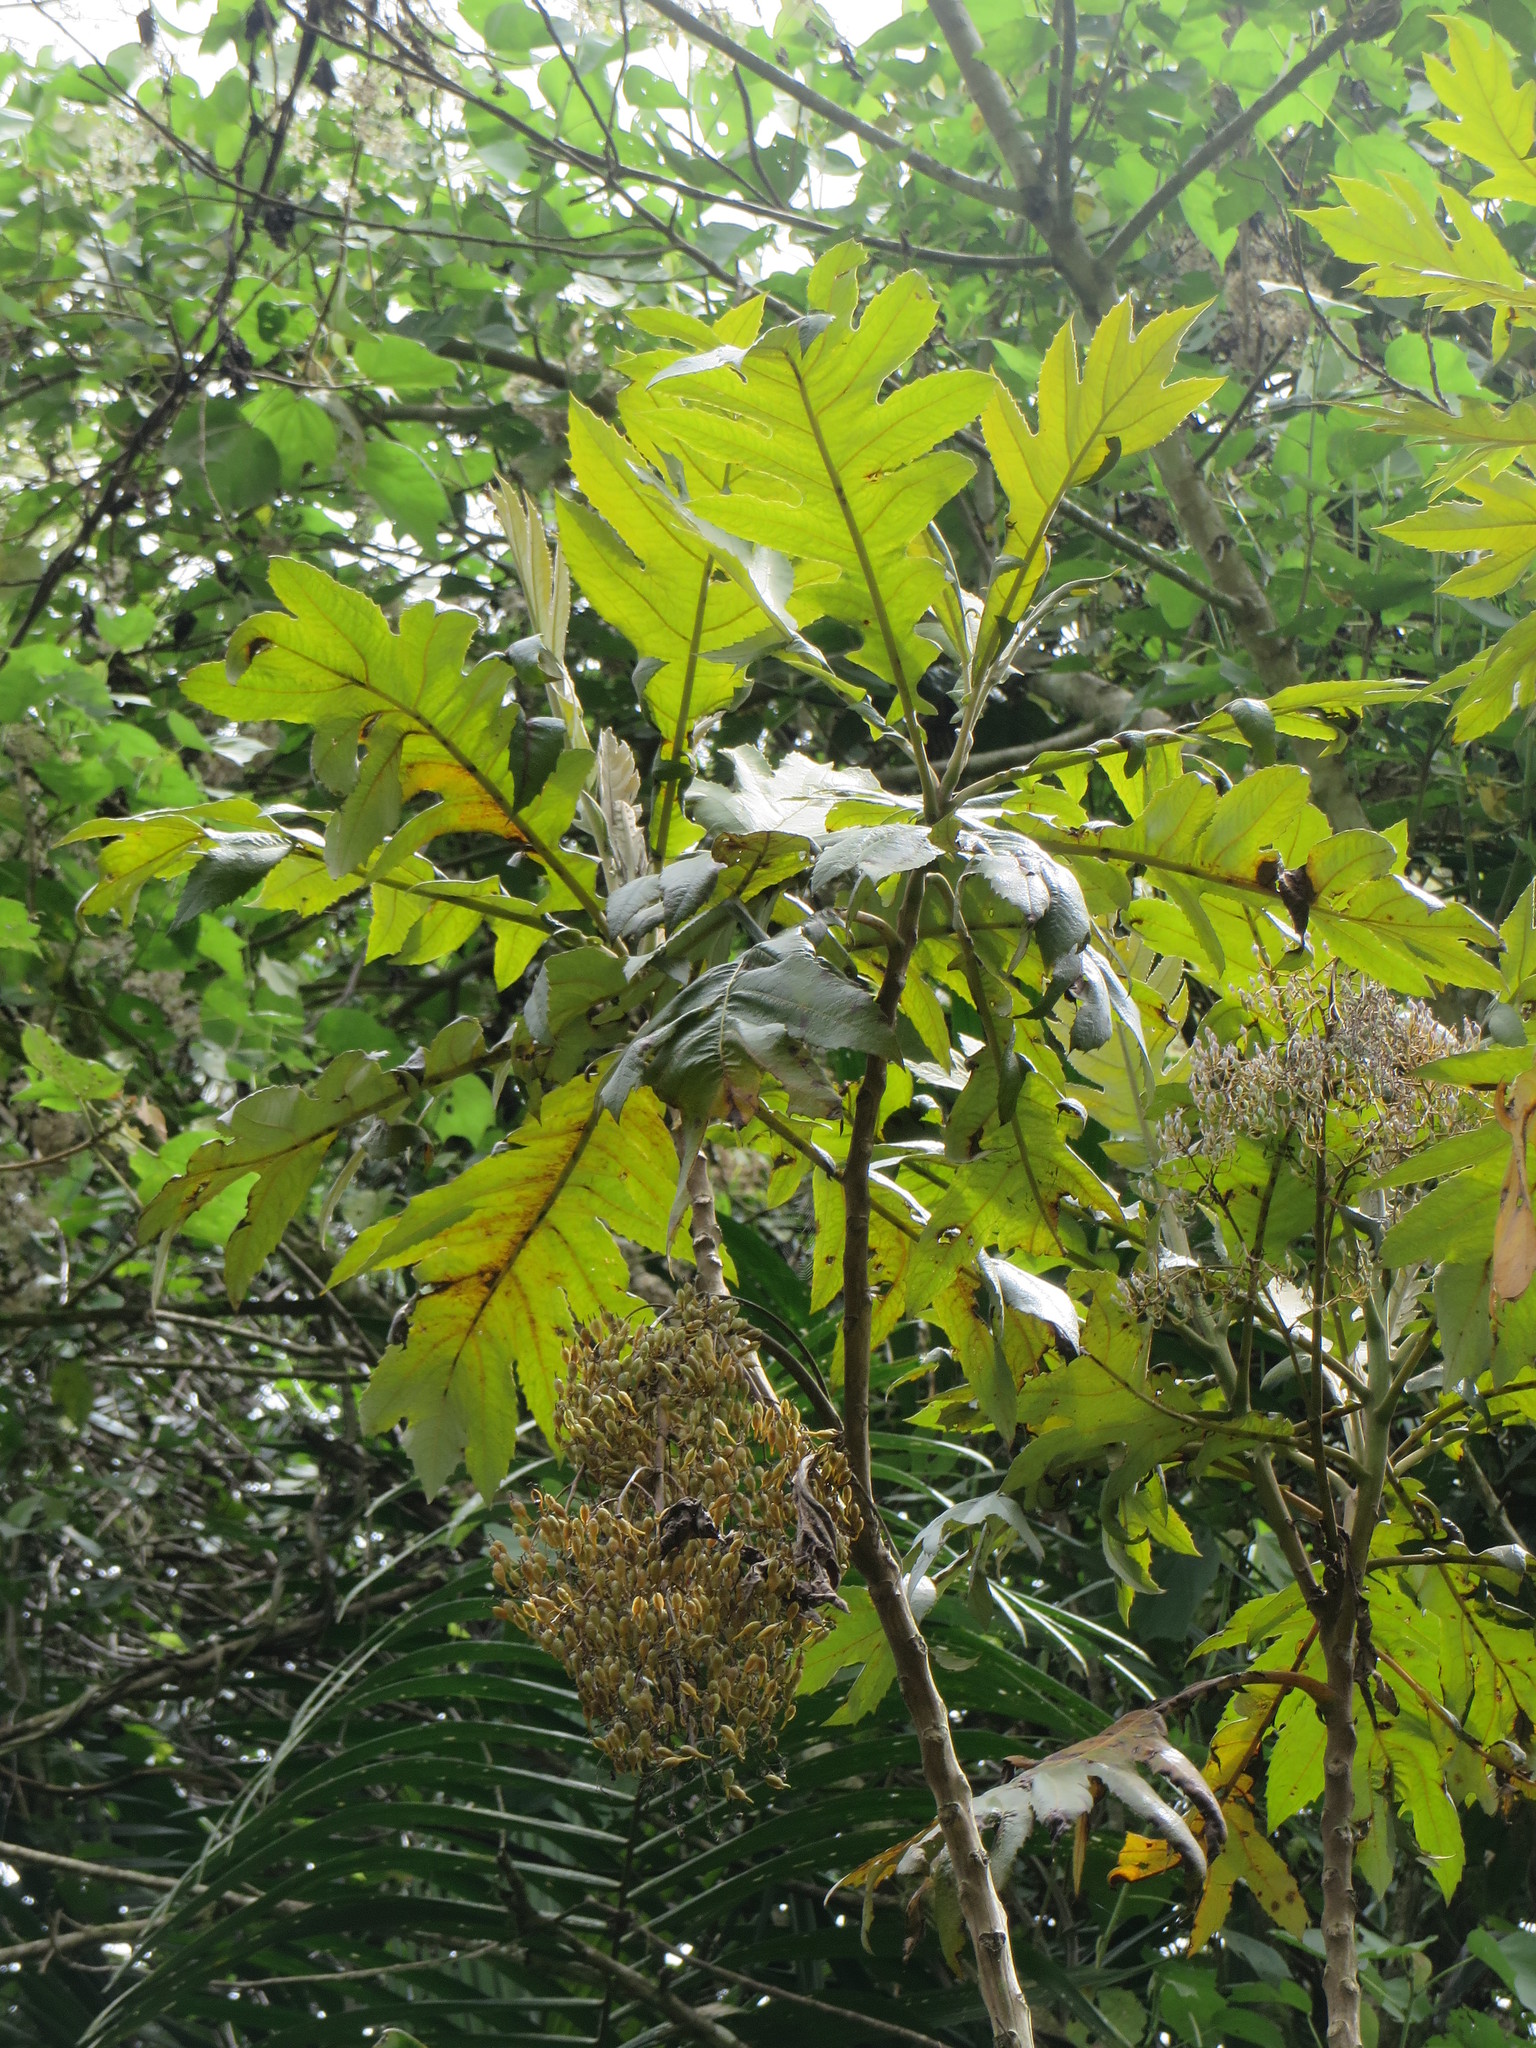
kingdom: Plantae
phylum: Tracheophyta
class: Magnoliopsida
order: Ranunculales
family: Papaveraceae
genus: Bocconia
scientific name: Bocconia frutescens
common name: Tree poppy
